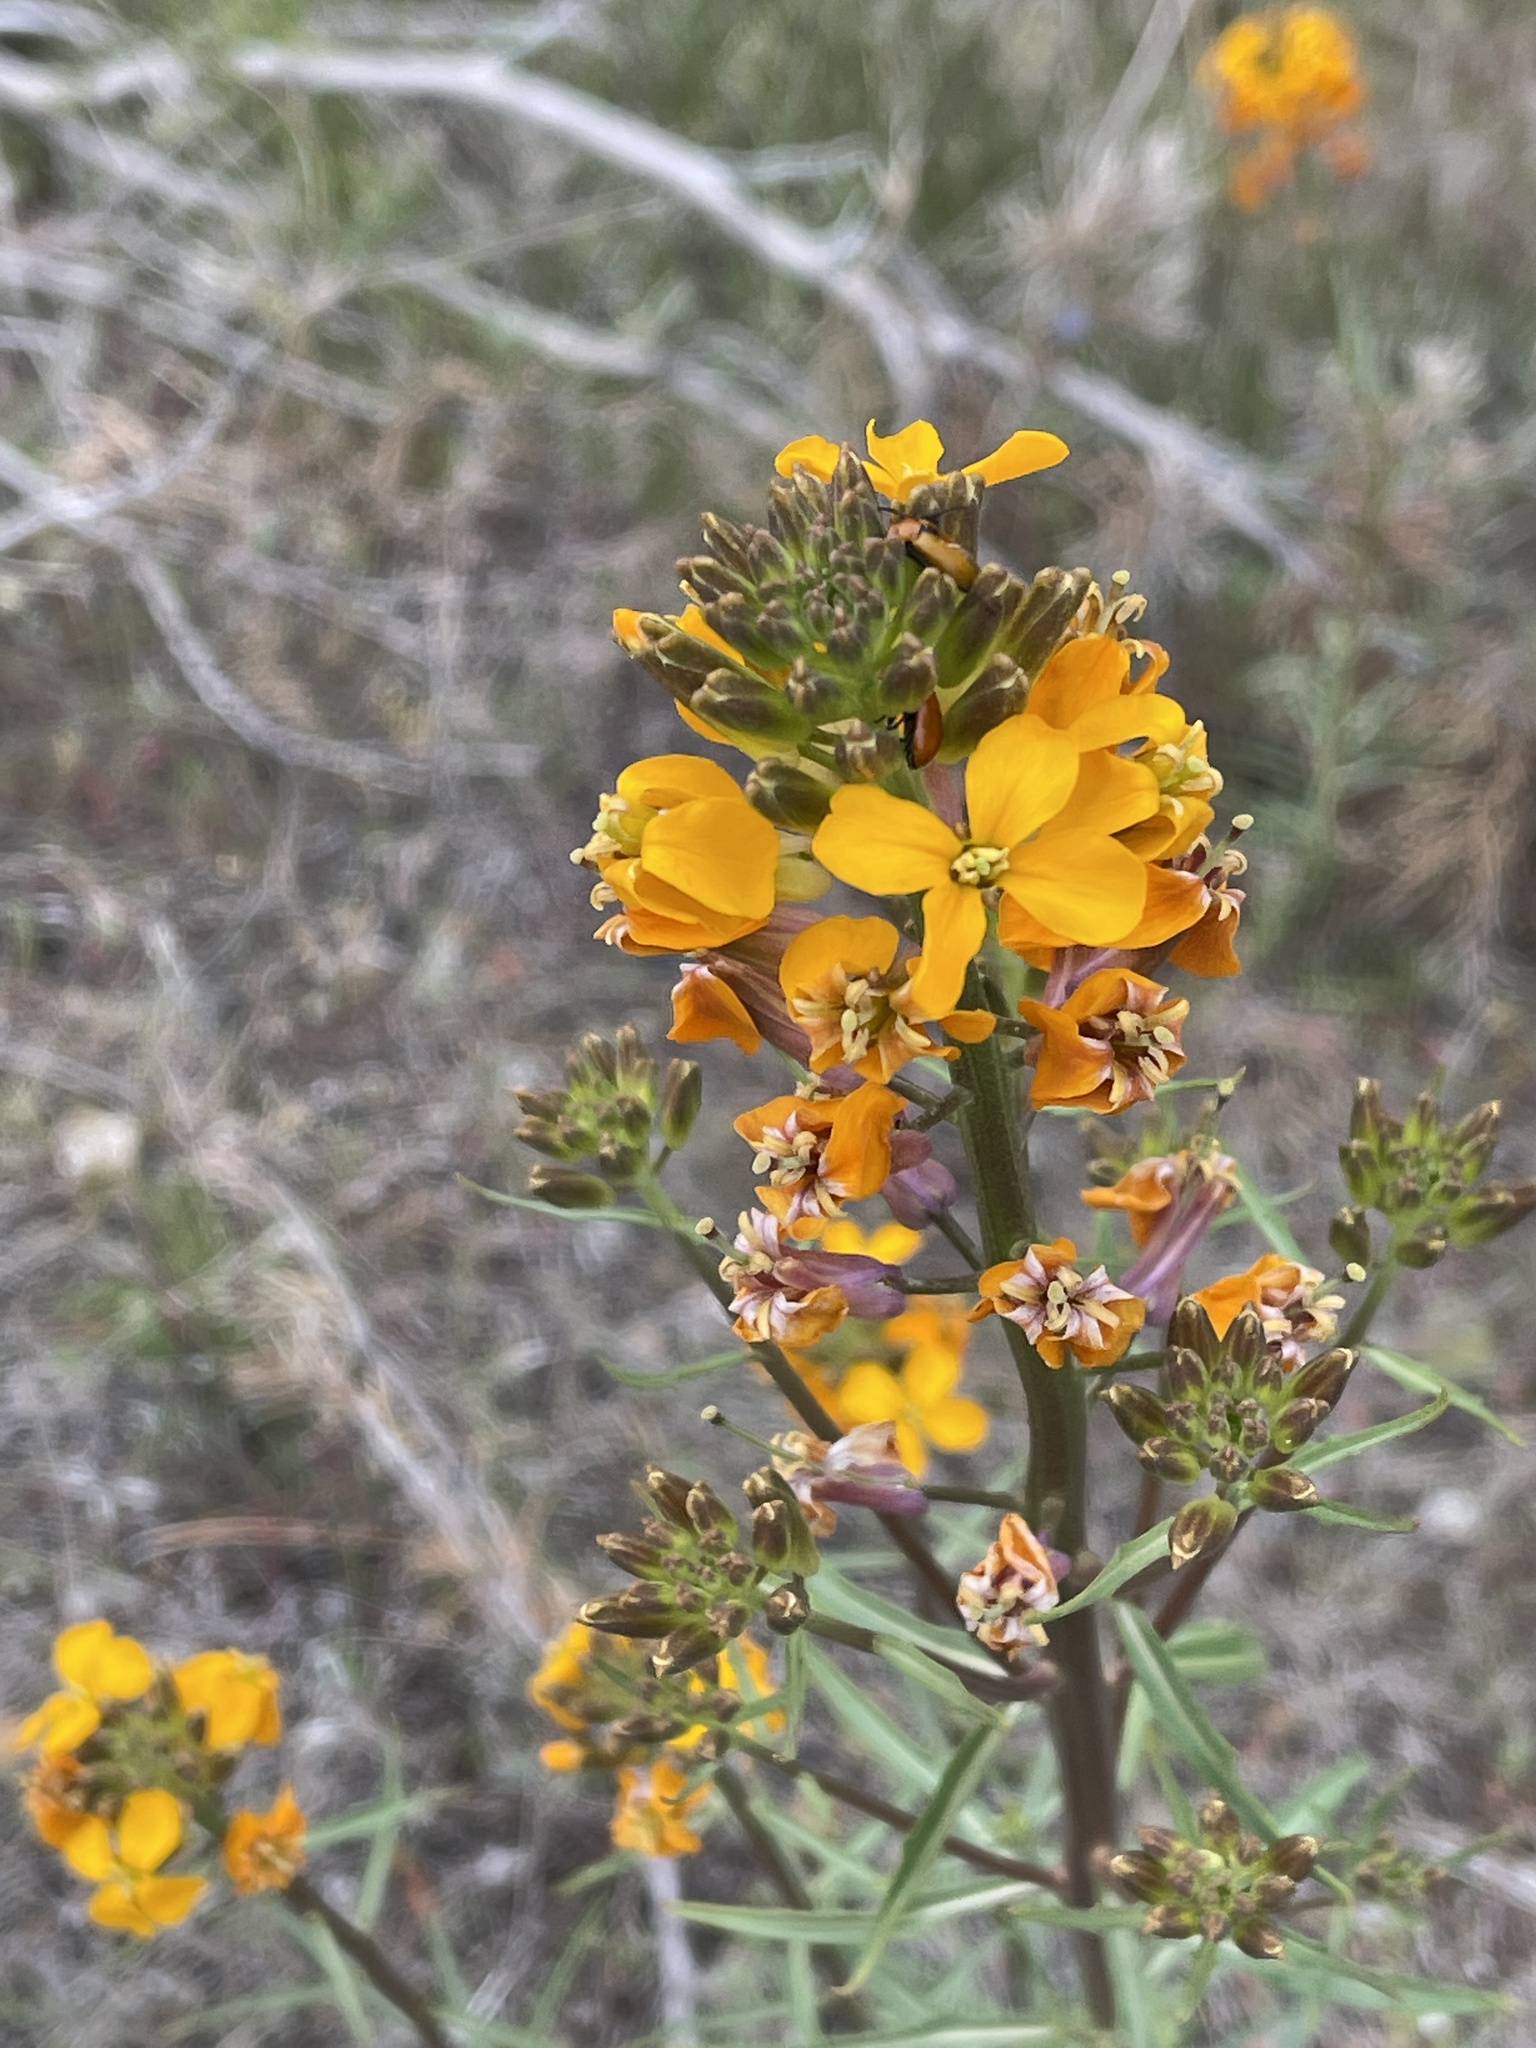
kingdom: Plantae
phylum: Tracheophyta
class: Magnoliopsida
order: Brassicales
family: Brassicaceae
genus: Erysimum
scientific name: Erysimum capitatum
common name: Western wallflower
